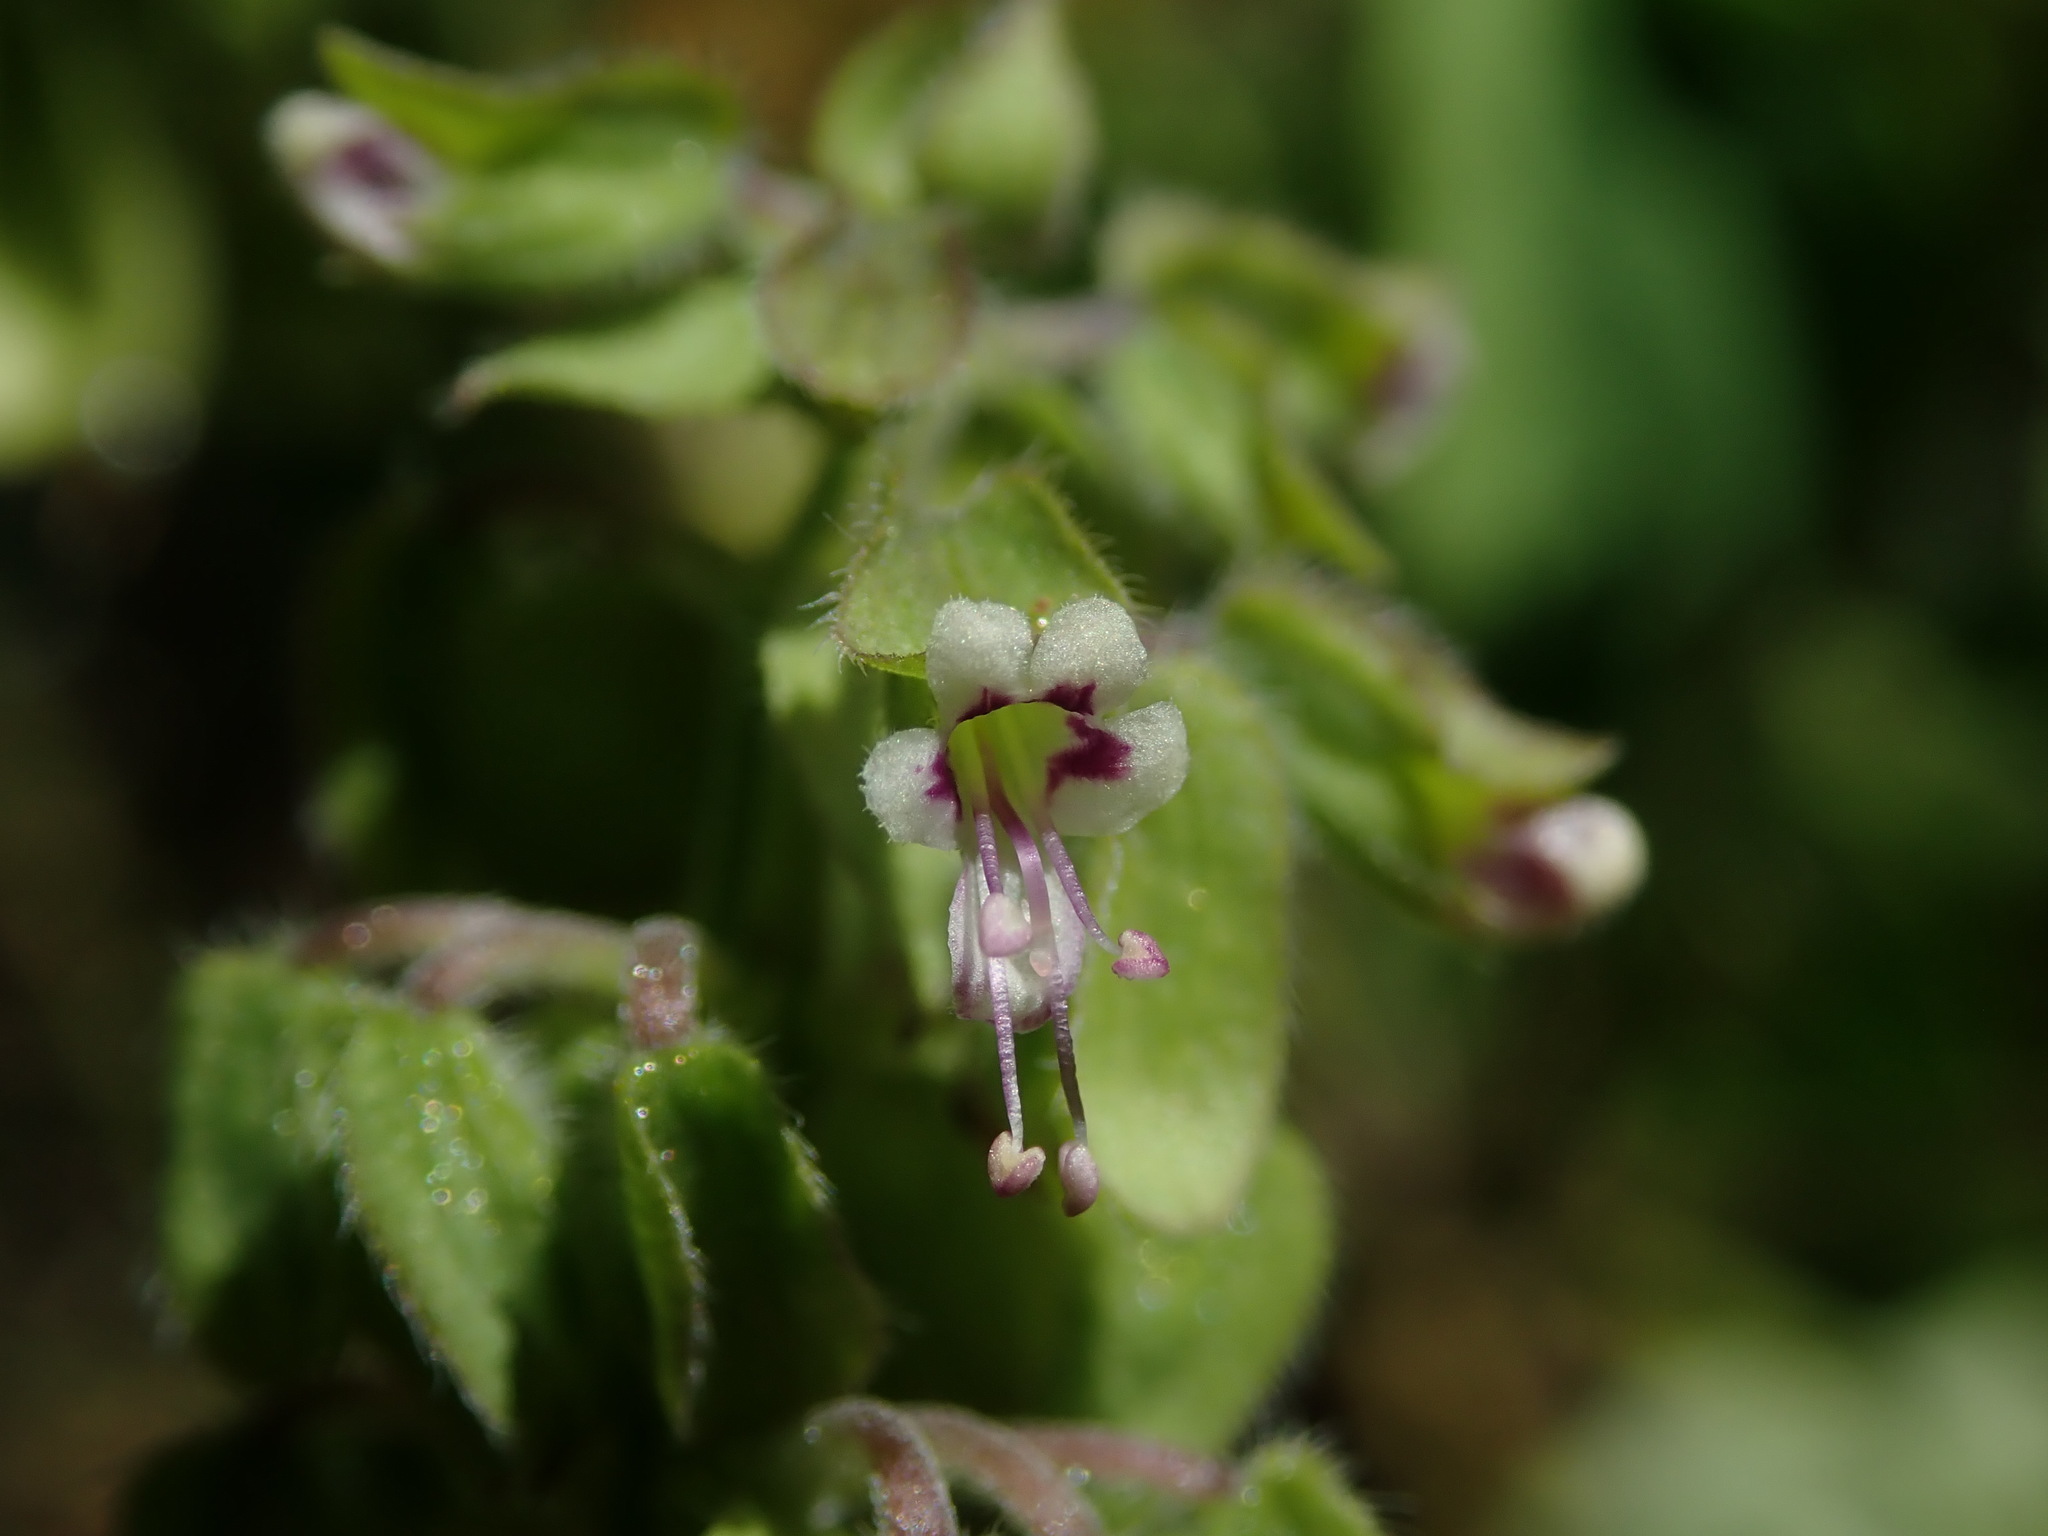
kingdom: Plantae
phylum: Tracheophyta
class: Magnoliopsida
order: Lamiales
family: Lamiaceae
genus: Ocimum
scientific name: Ocimum campechianum
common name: Mosquito basil
